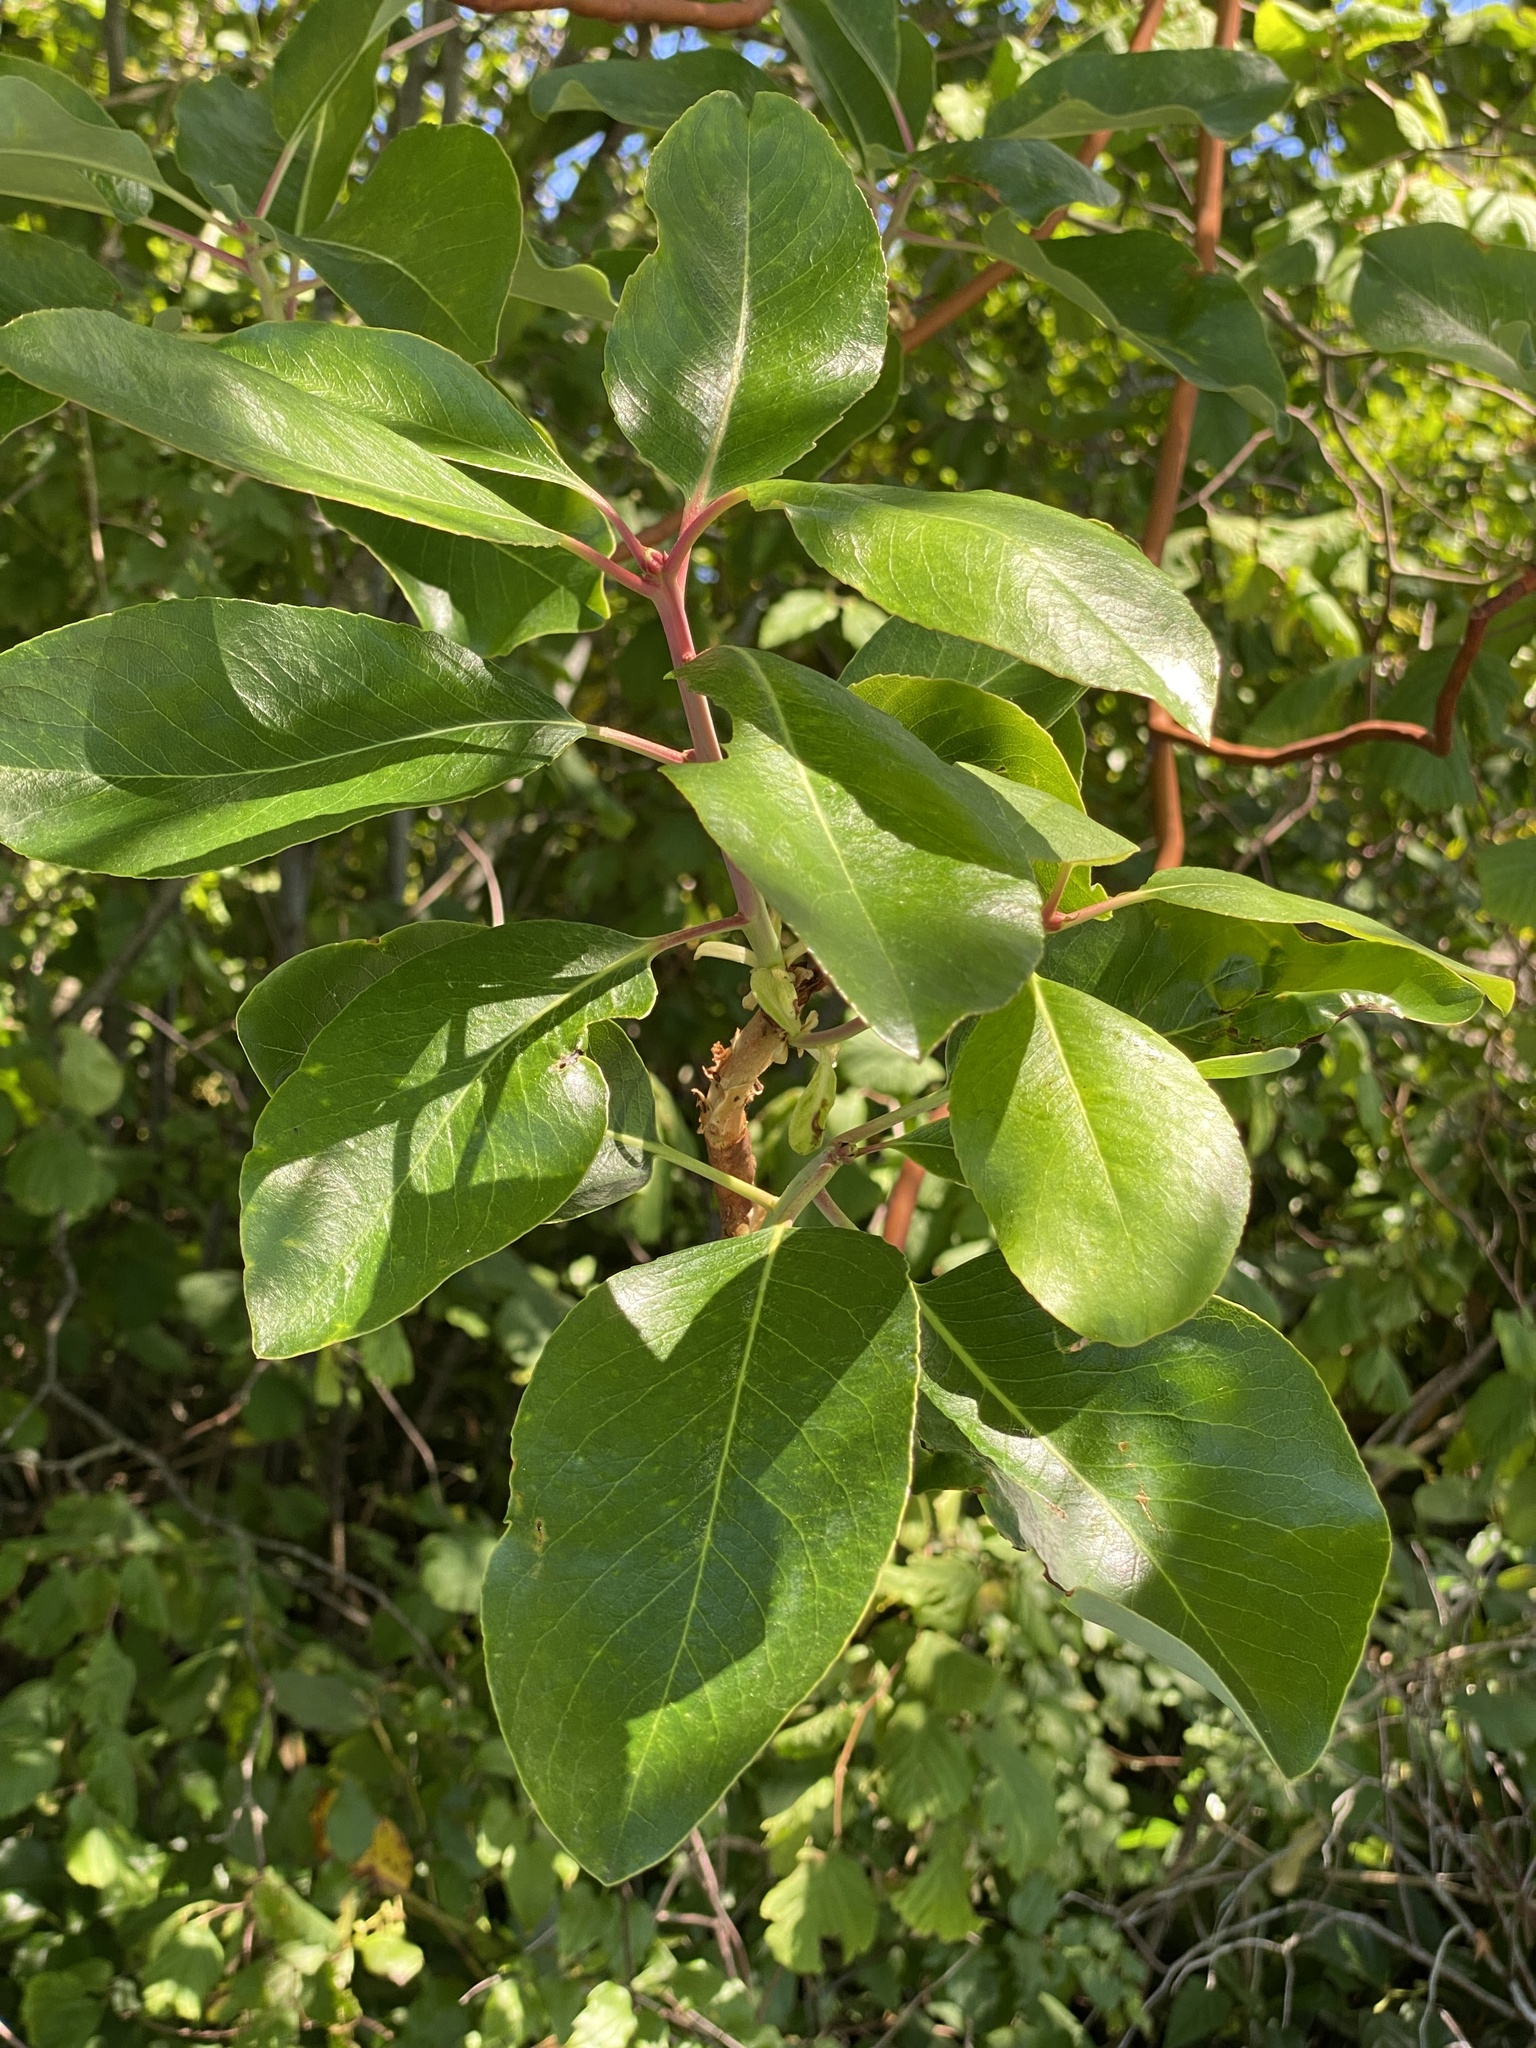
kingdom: Plantae
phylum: Tracheophyta
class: Magnoliopsida
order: Ericales
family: Ericaceae
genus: Arbutus
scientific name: Arbutus menziesii
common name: Pacific madrone
